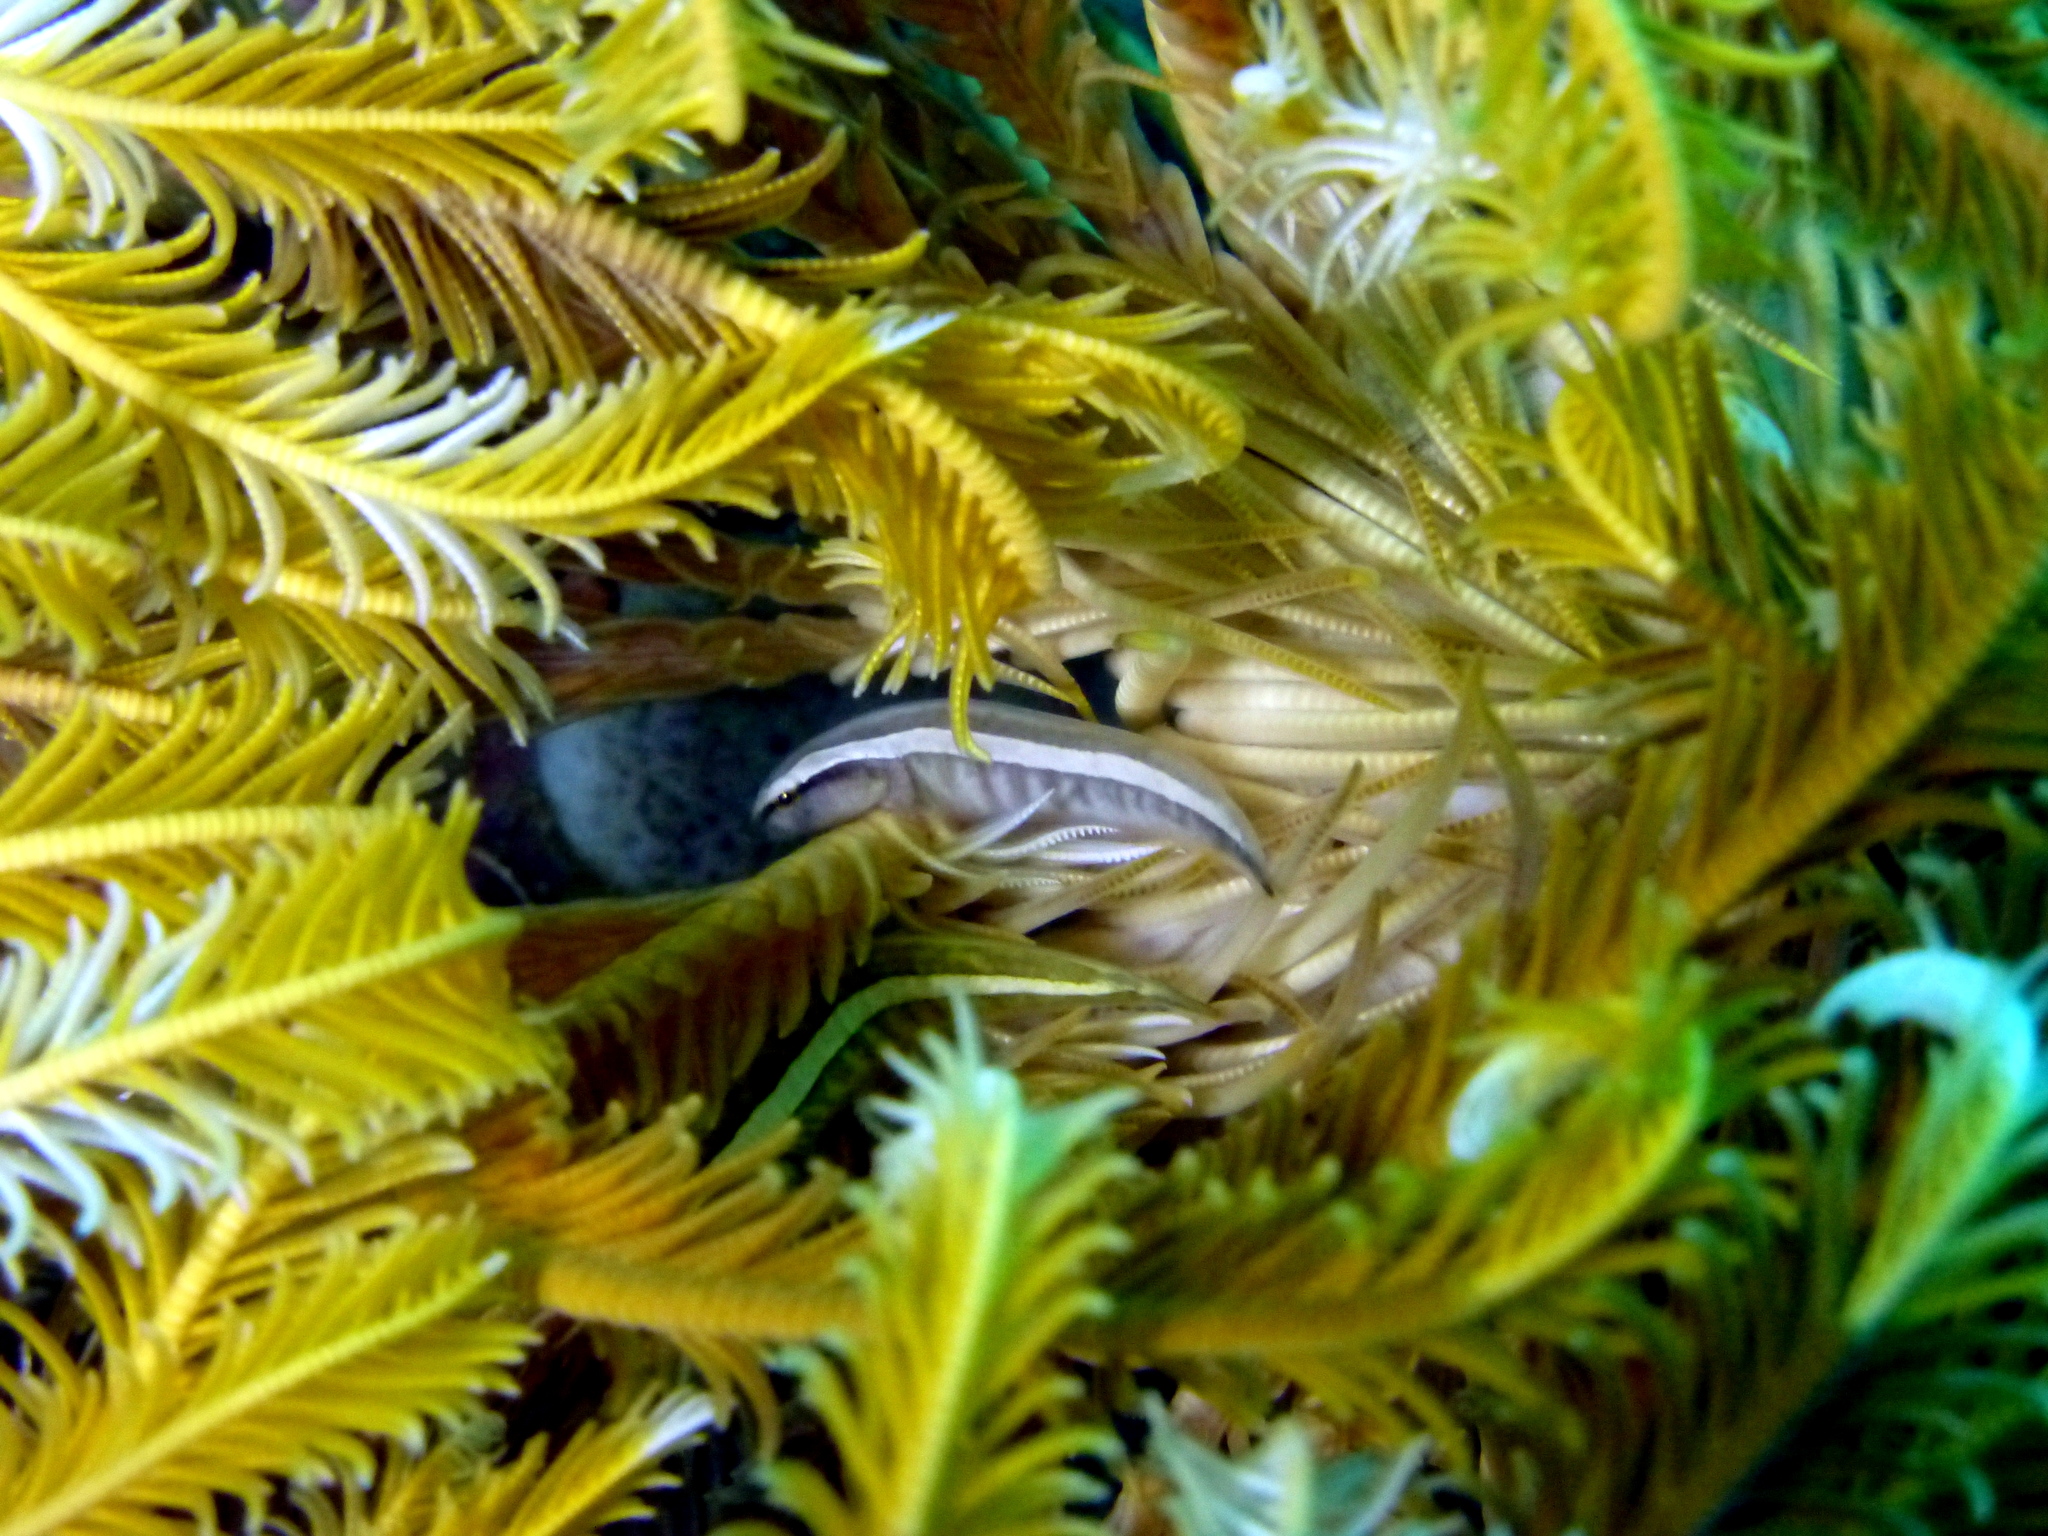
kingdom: Animalia
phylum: Chordata
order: Gobiesociformes
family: Gobiesocidae
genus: Discotrema
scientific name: Discotrema crinophilum
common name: Crinoid clingfish
